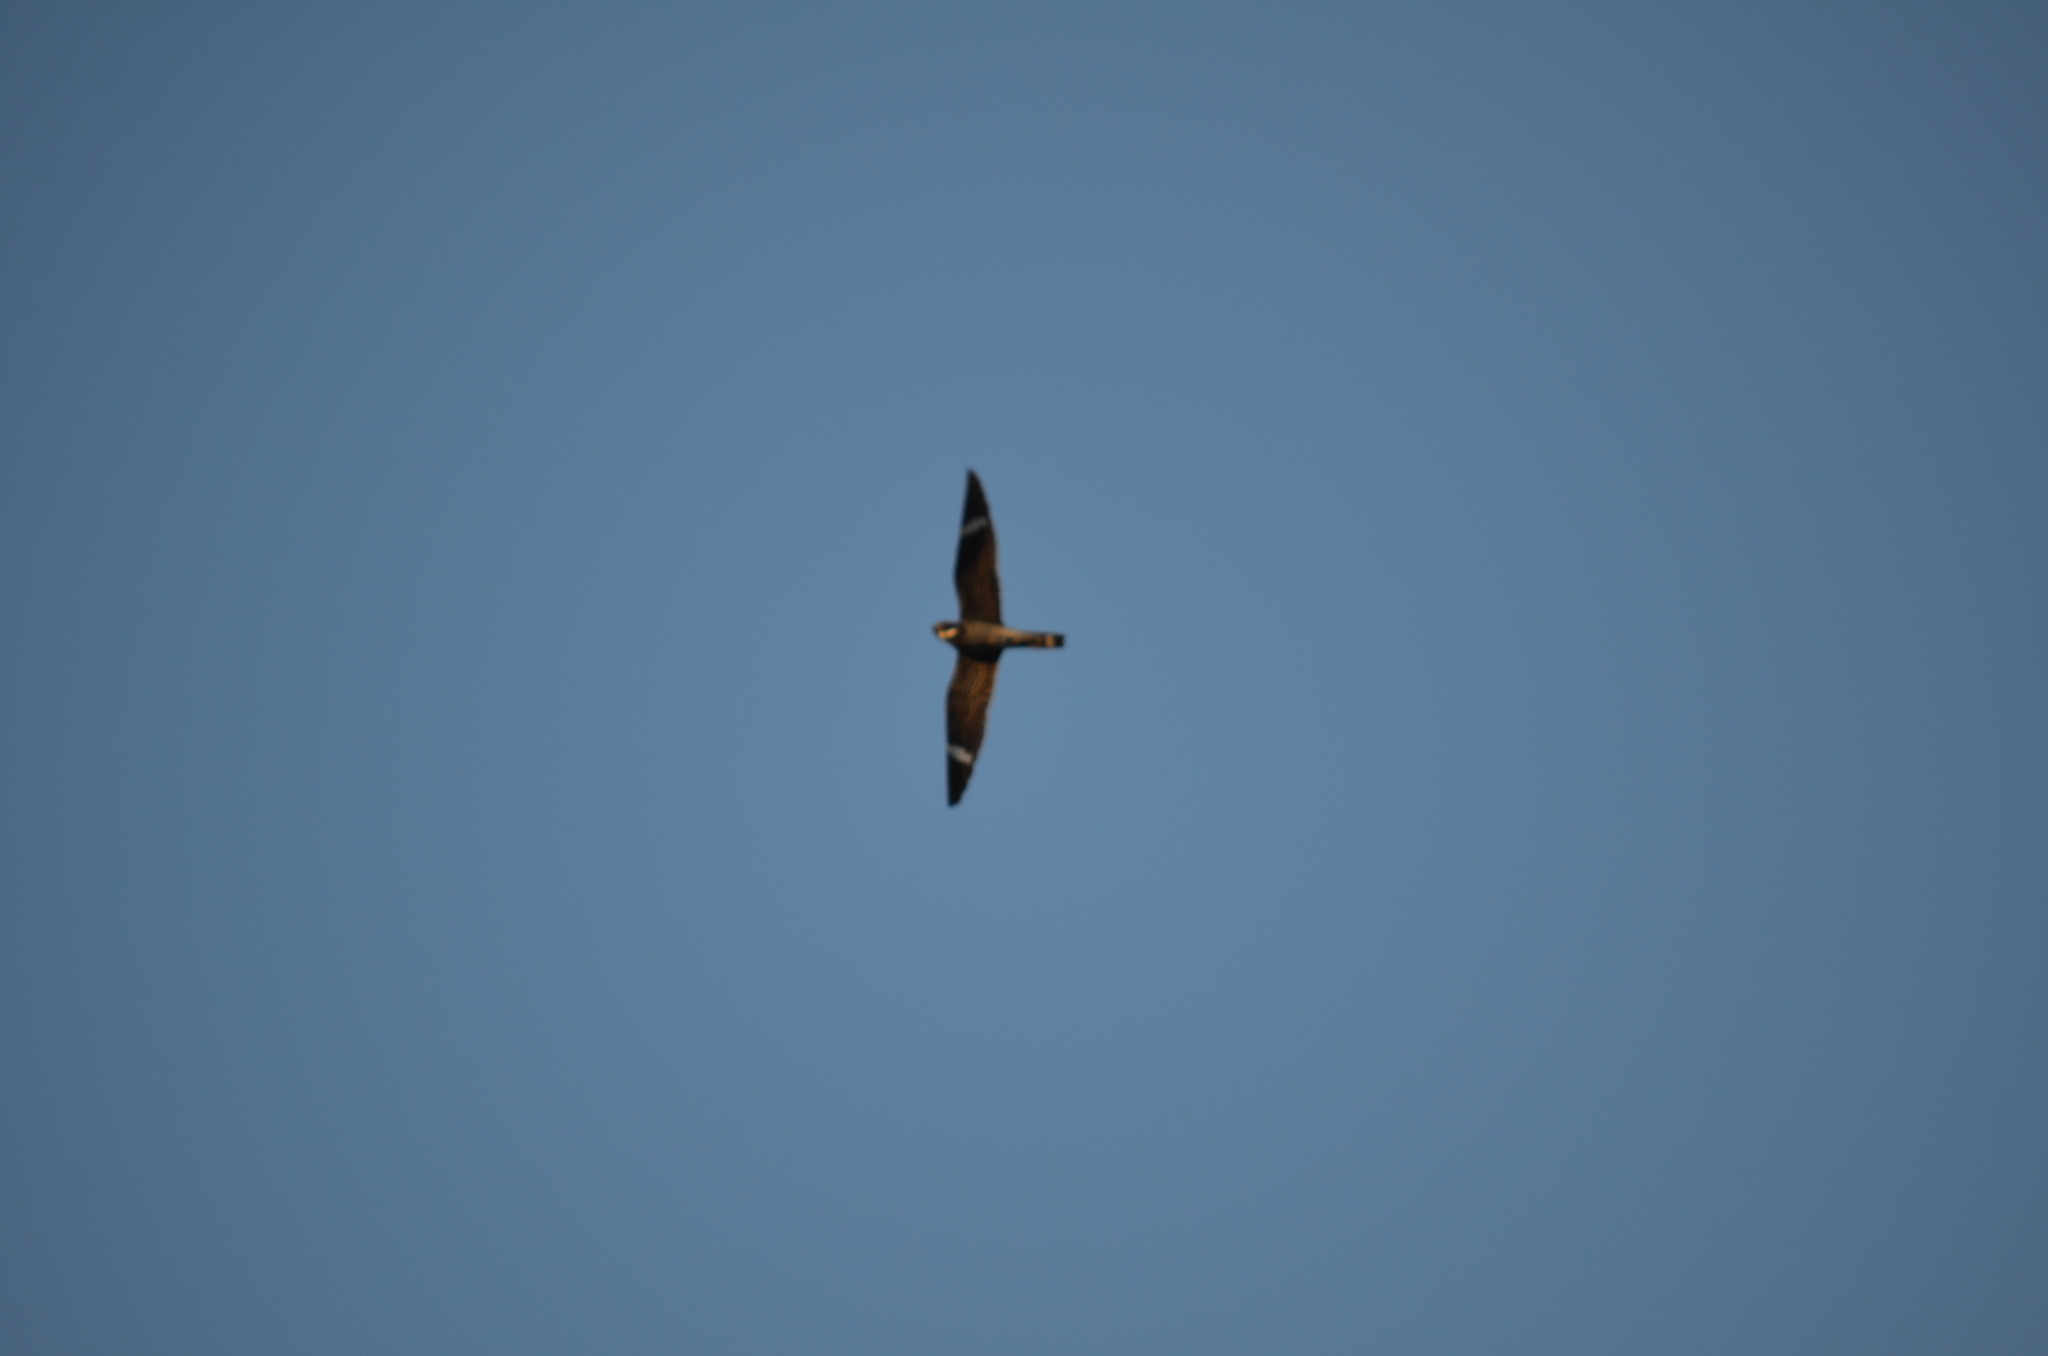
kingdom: Animalia
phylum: Chordata
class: Aves
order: Caprimulgiformes
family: Caprimulgidae
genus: Chordeiles
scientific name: Chordeiles minor
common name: Common nighthawk
